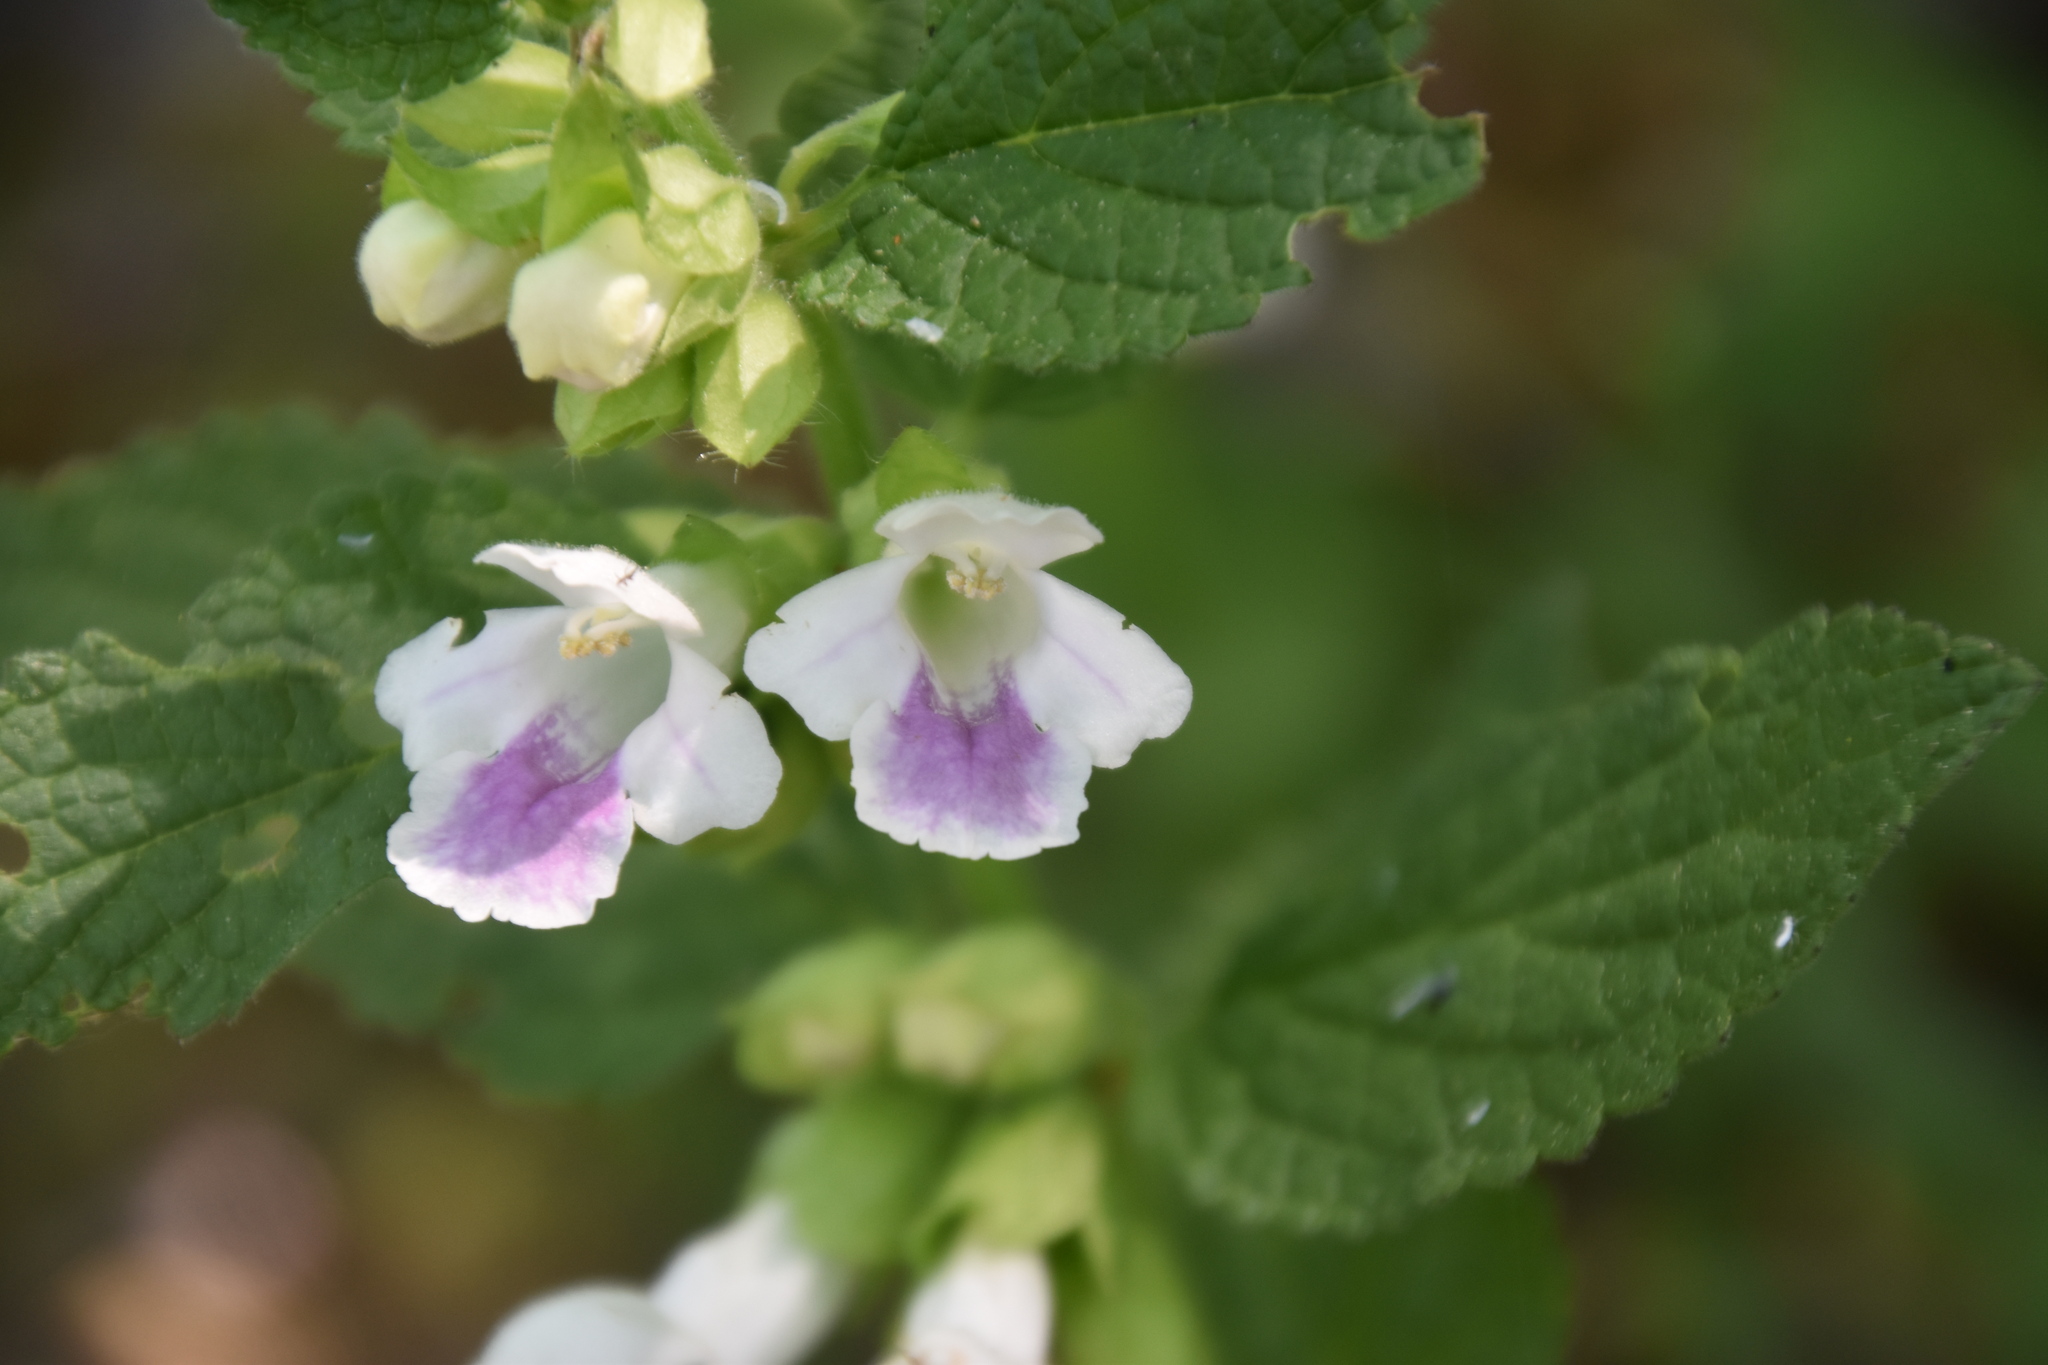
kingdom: Plantae
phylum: Tracheophyta
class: Magnoliopsida
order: Lamiales
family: Lamiaceae
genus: Melittis
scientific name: Melittis melissophyllum
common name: Bastard balm
